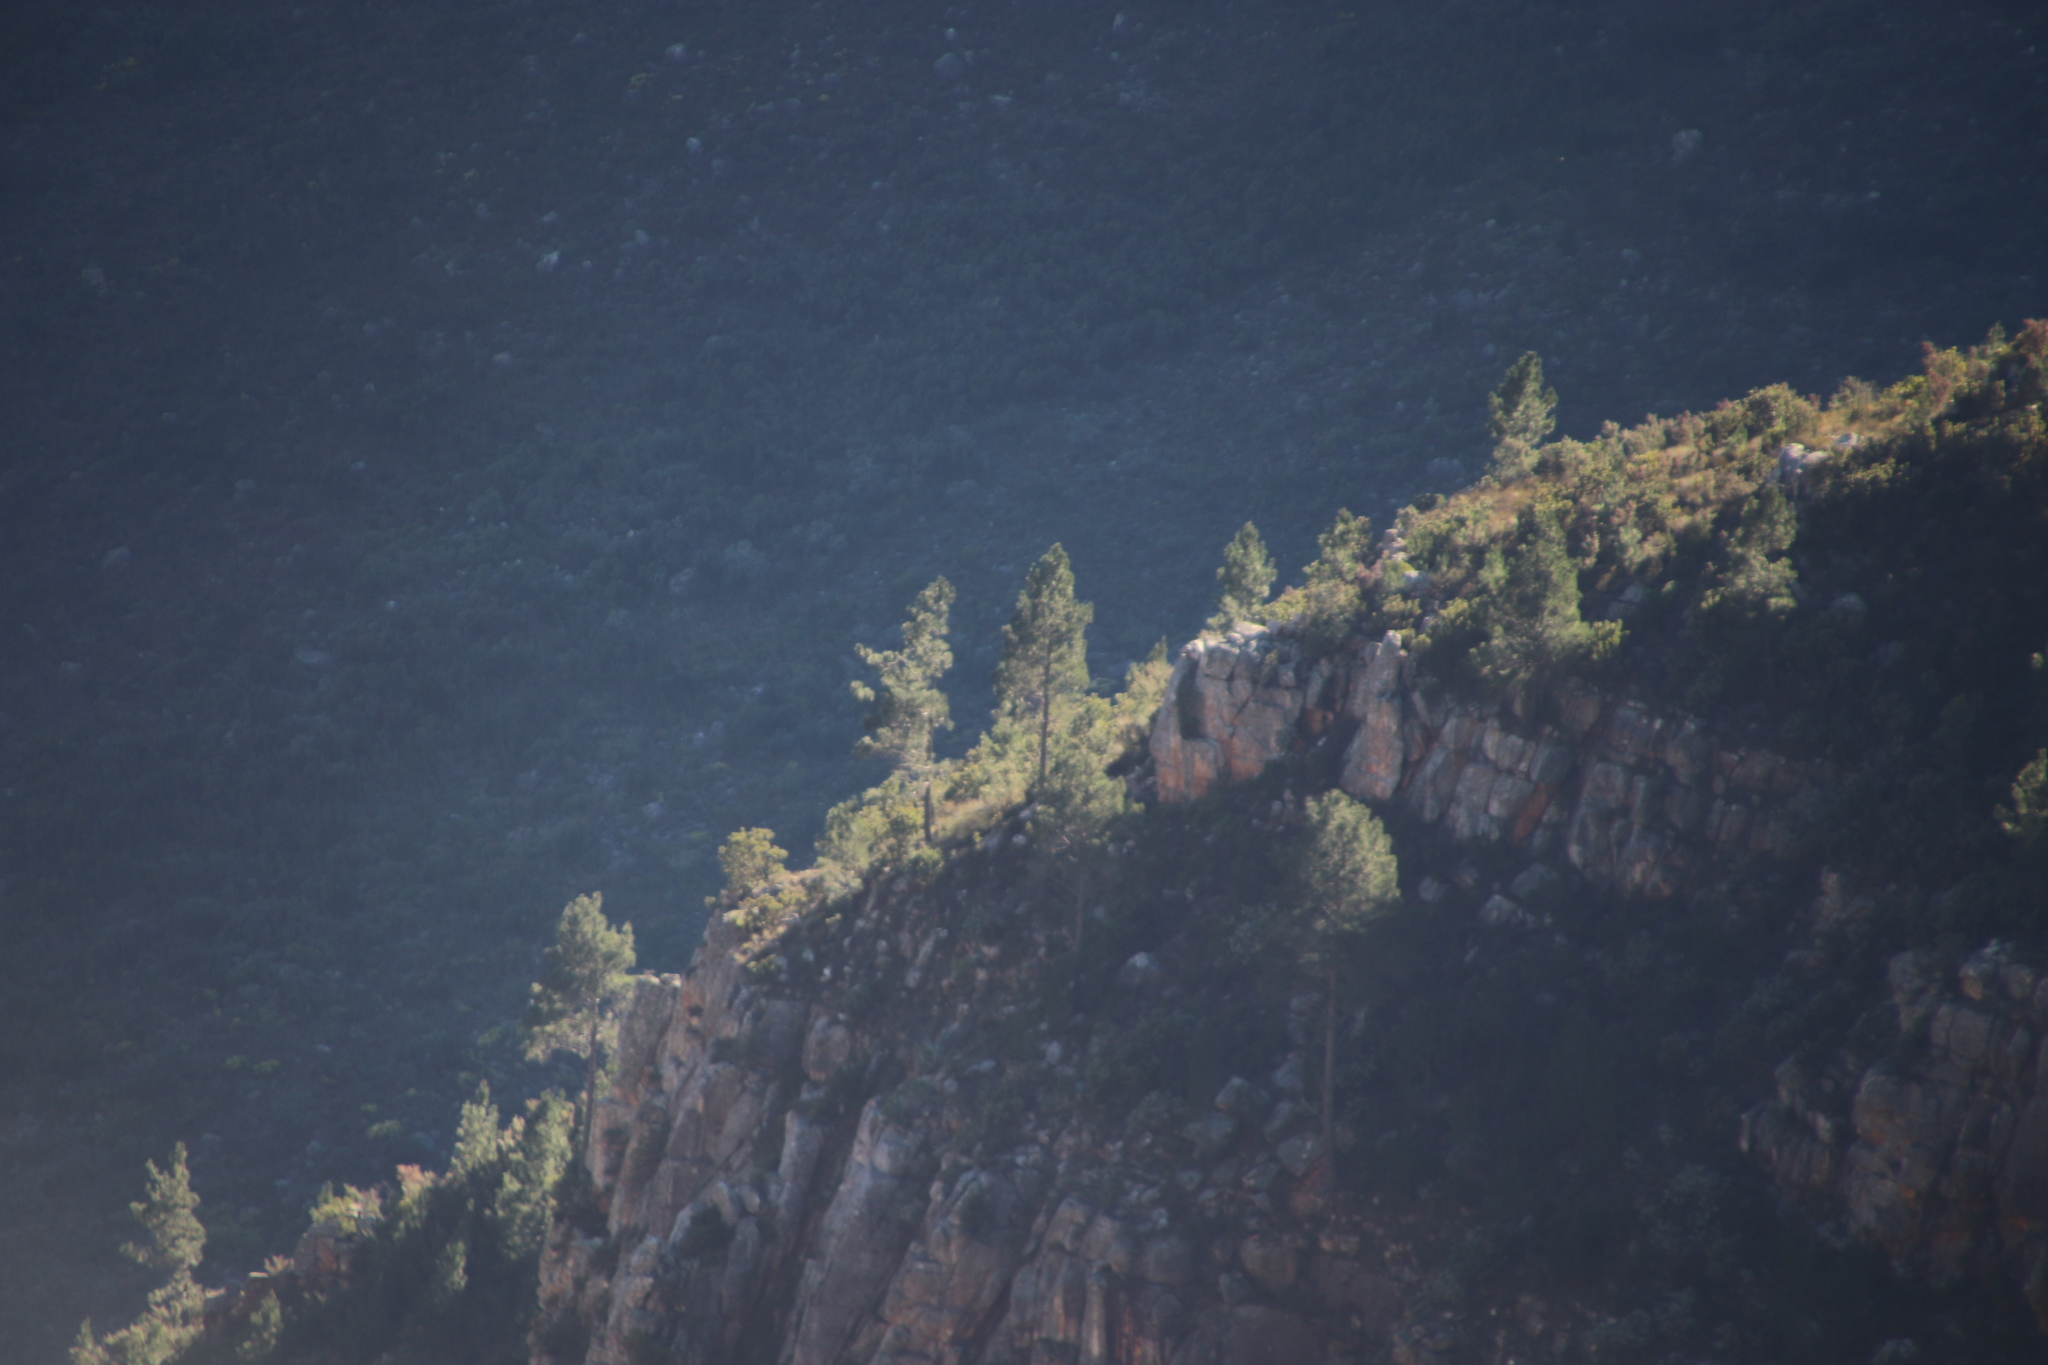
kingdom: Plantae
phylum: Tracheophyta
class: Pinopsida
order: Pinales
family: Pinaceae
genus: Pinus
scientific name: Pinus pinaster
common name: Maritime pine
